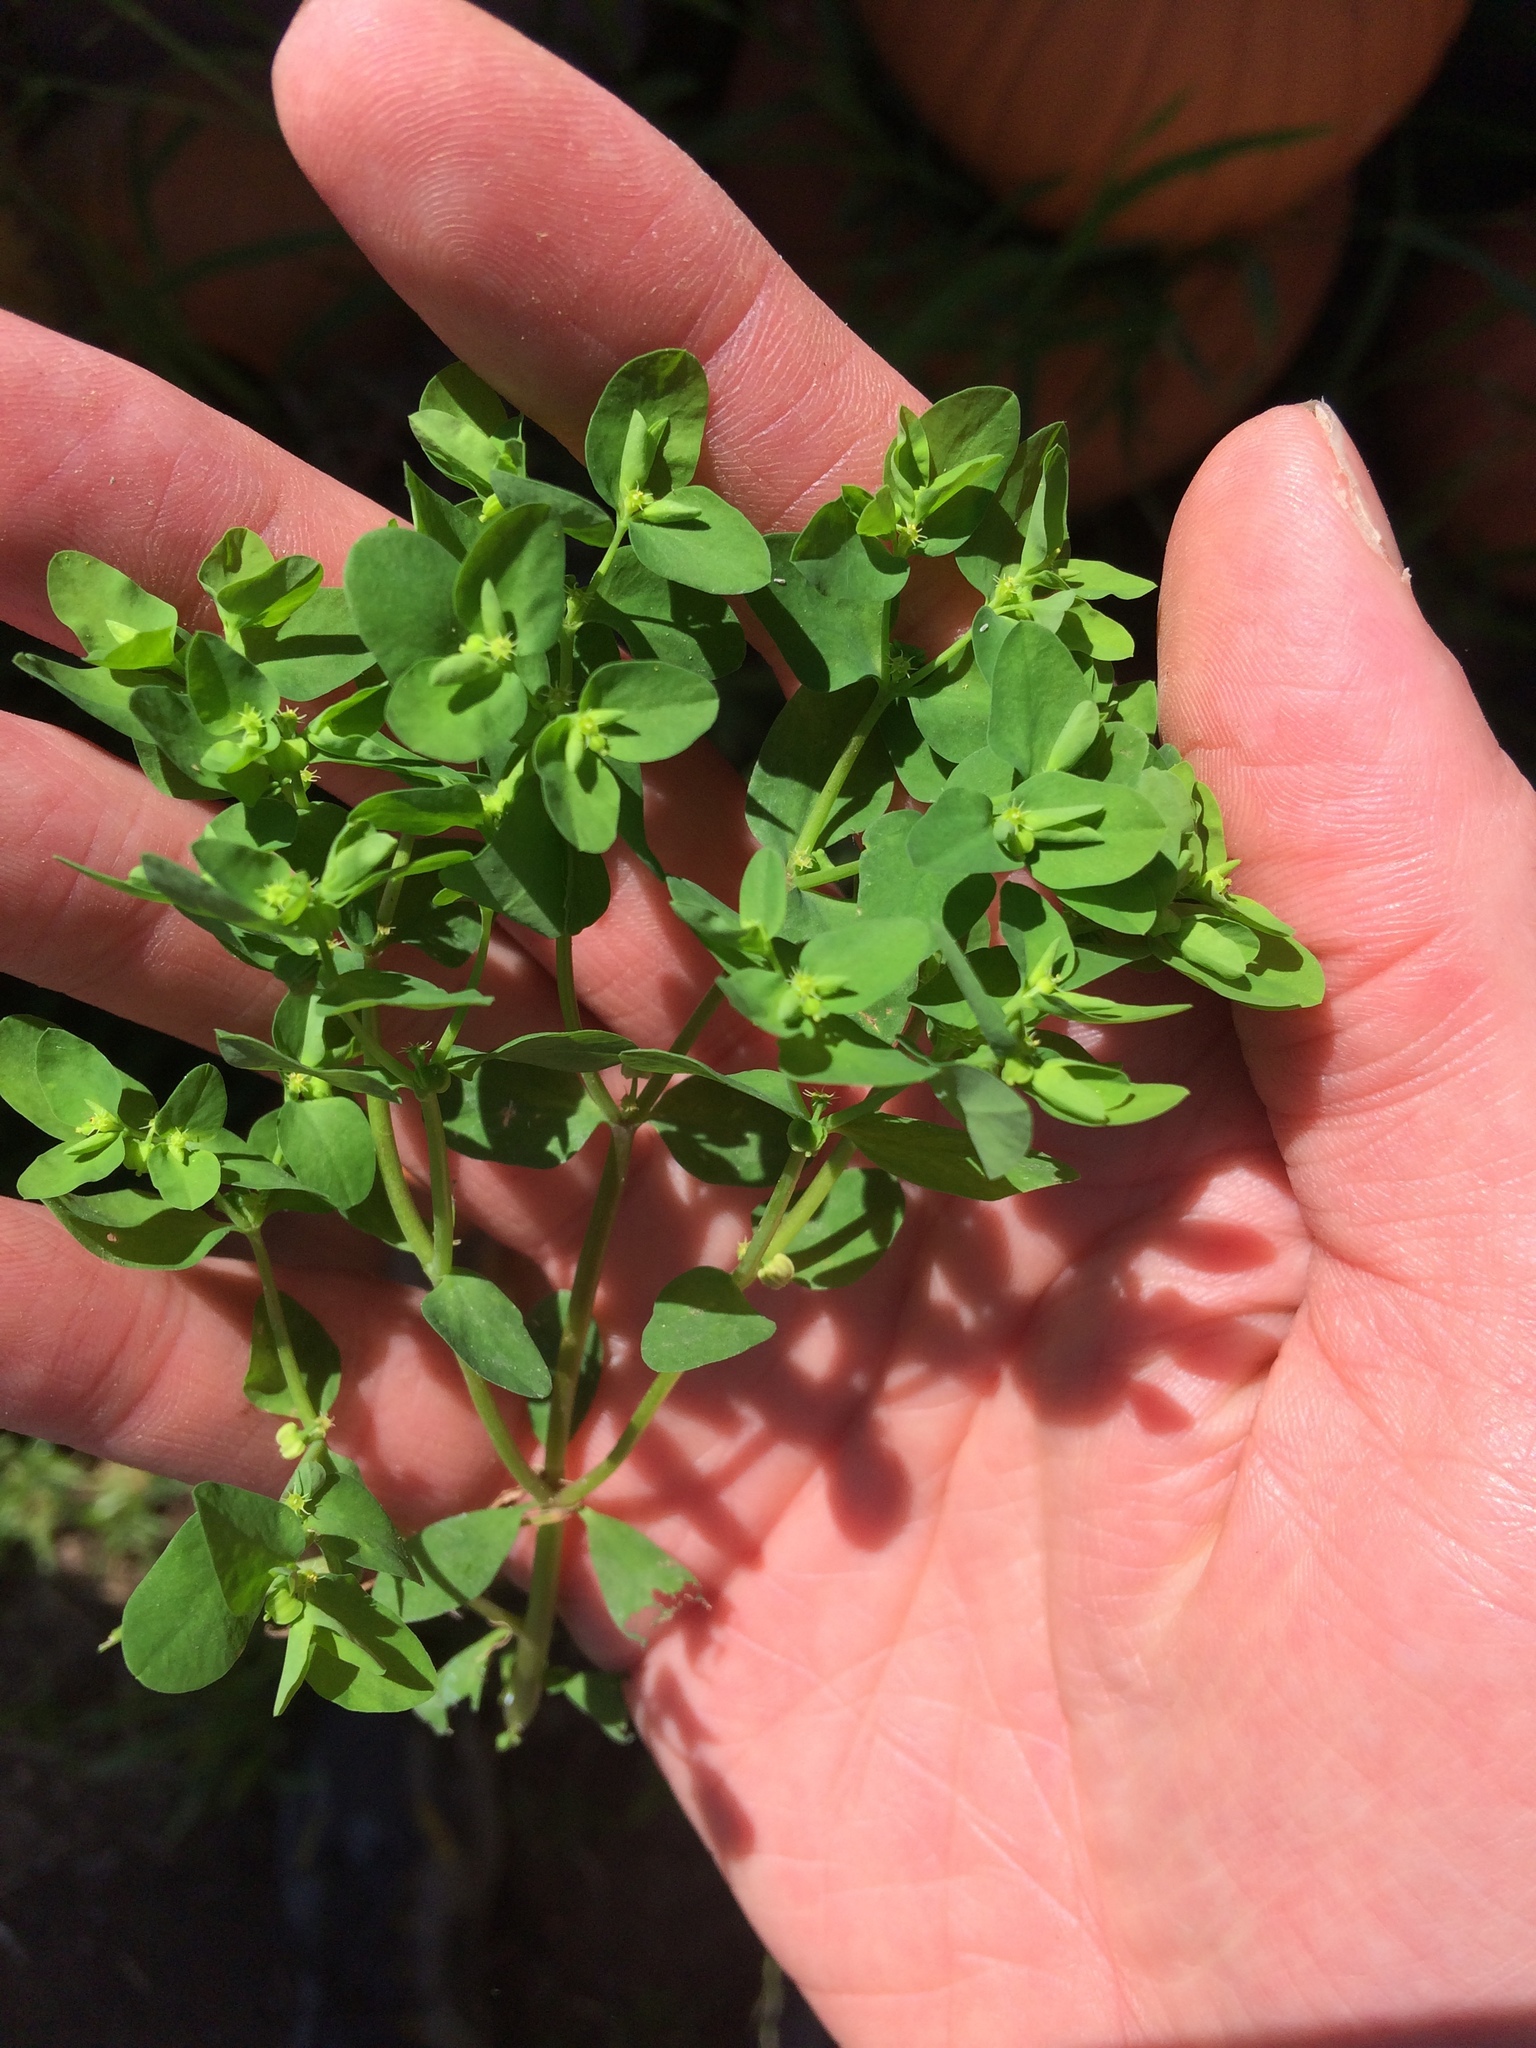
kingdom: Plantae
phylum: Tracheophyta
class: Magnoliopsida
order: Malpighiales
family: Euphorbiaceae
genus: Euphorbia
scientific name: Euphorbia peplus
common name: Petty spurge
